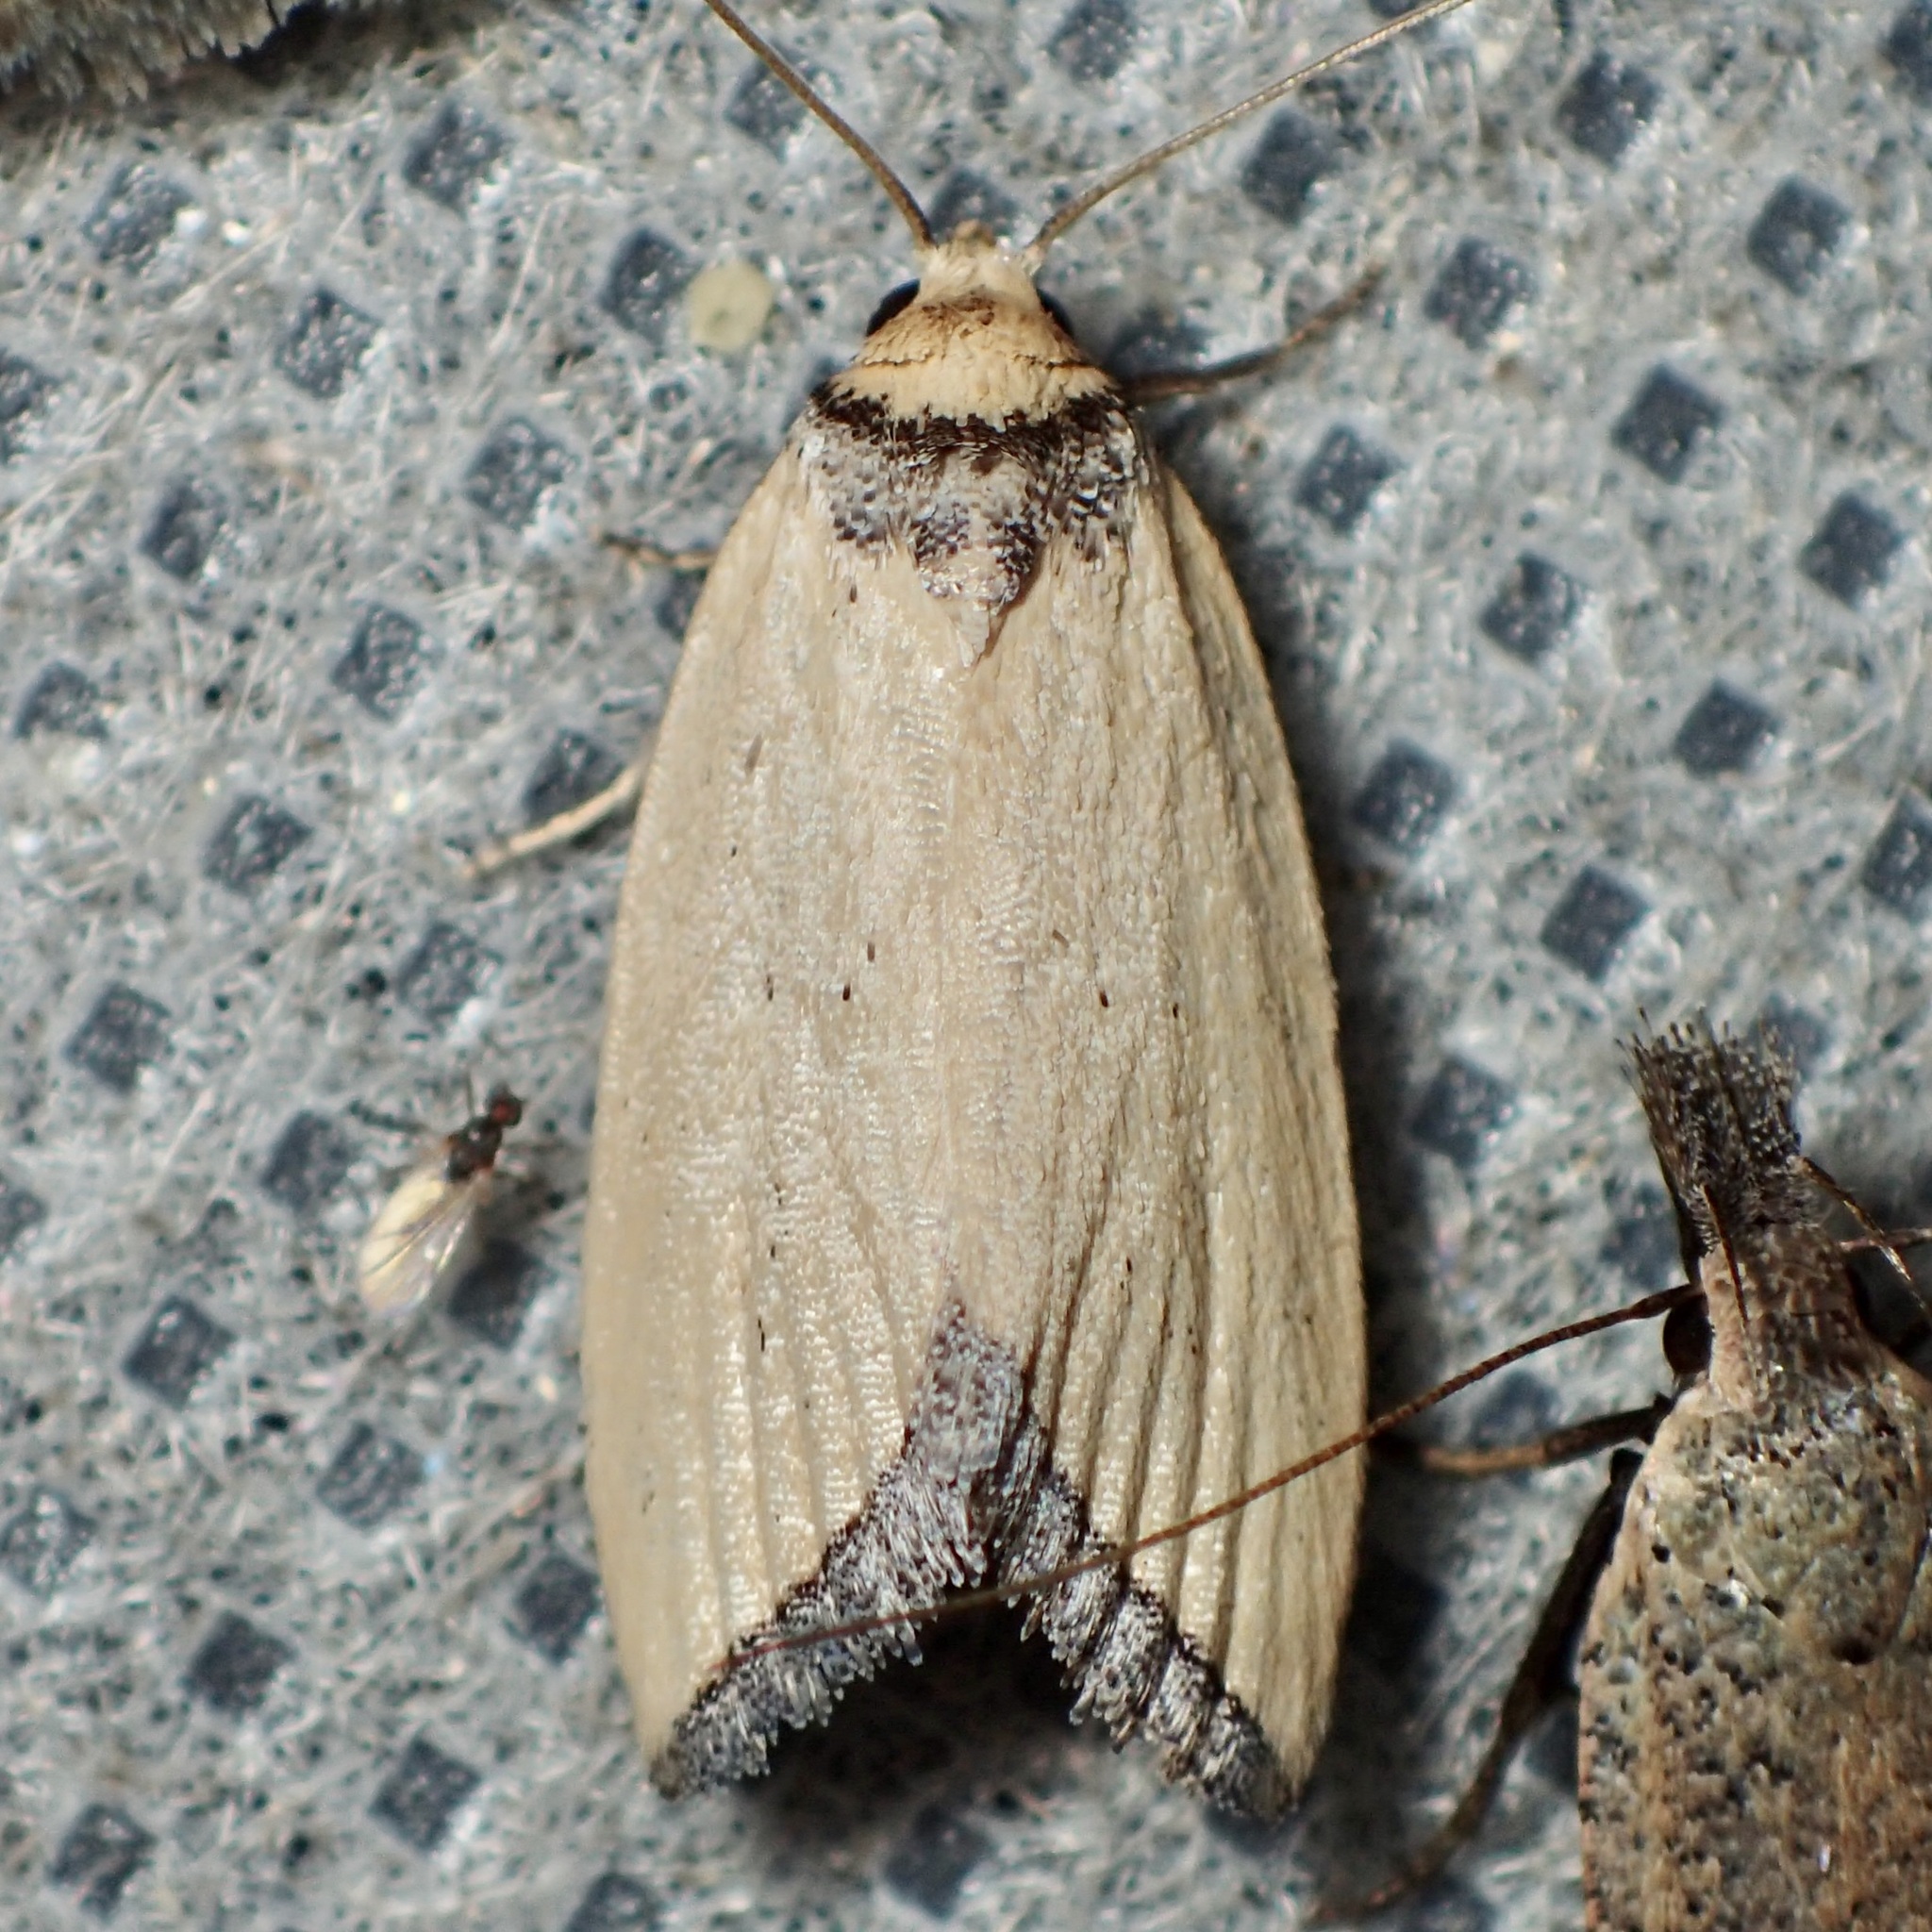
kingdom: Animalia
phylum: Arthropoda
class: Insecta
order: Lepidoptera
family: Noctuidae
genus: Pseudomarimatha
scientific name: Pseudomarimatha flava
